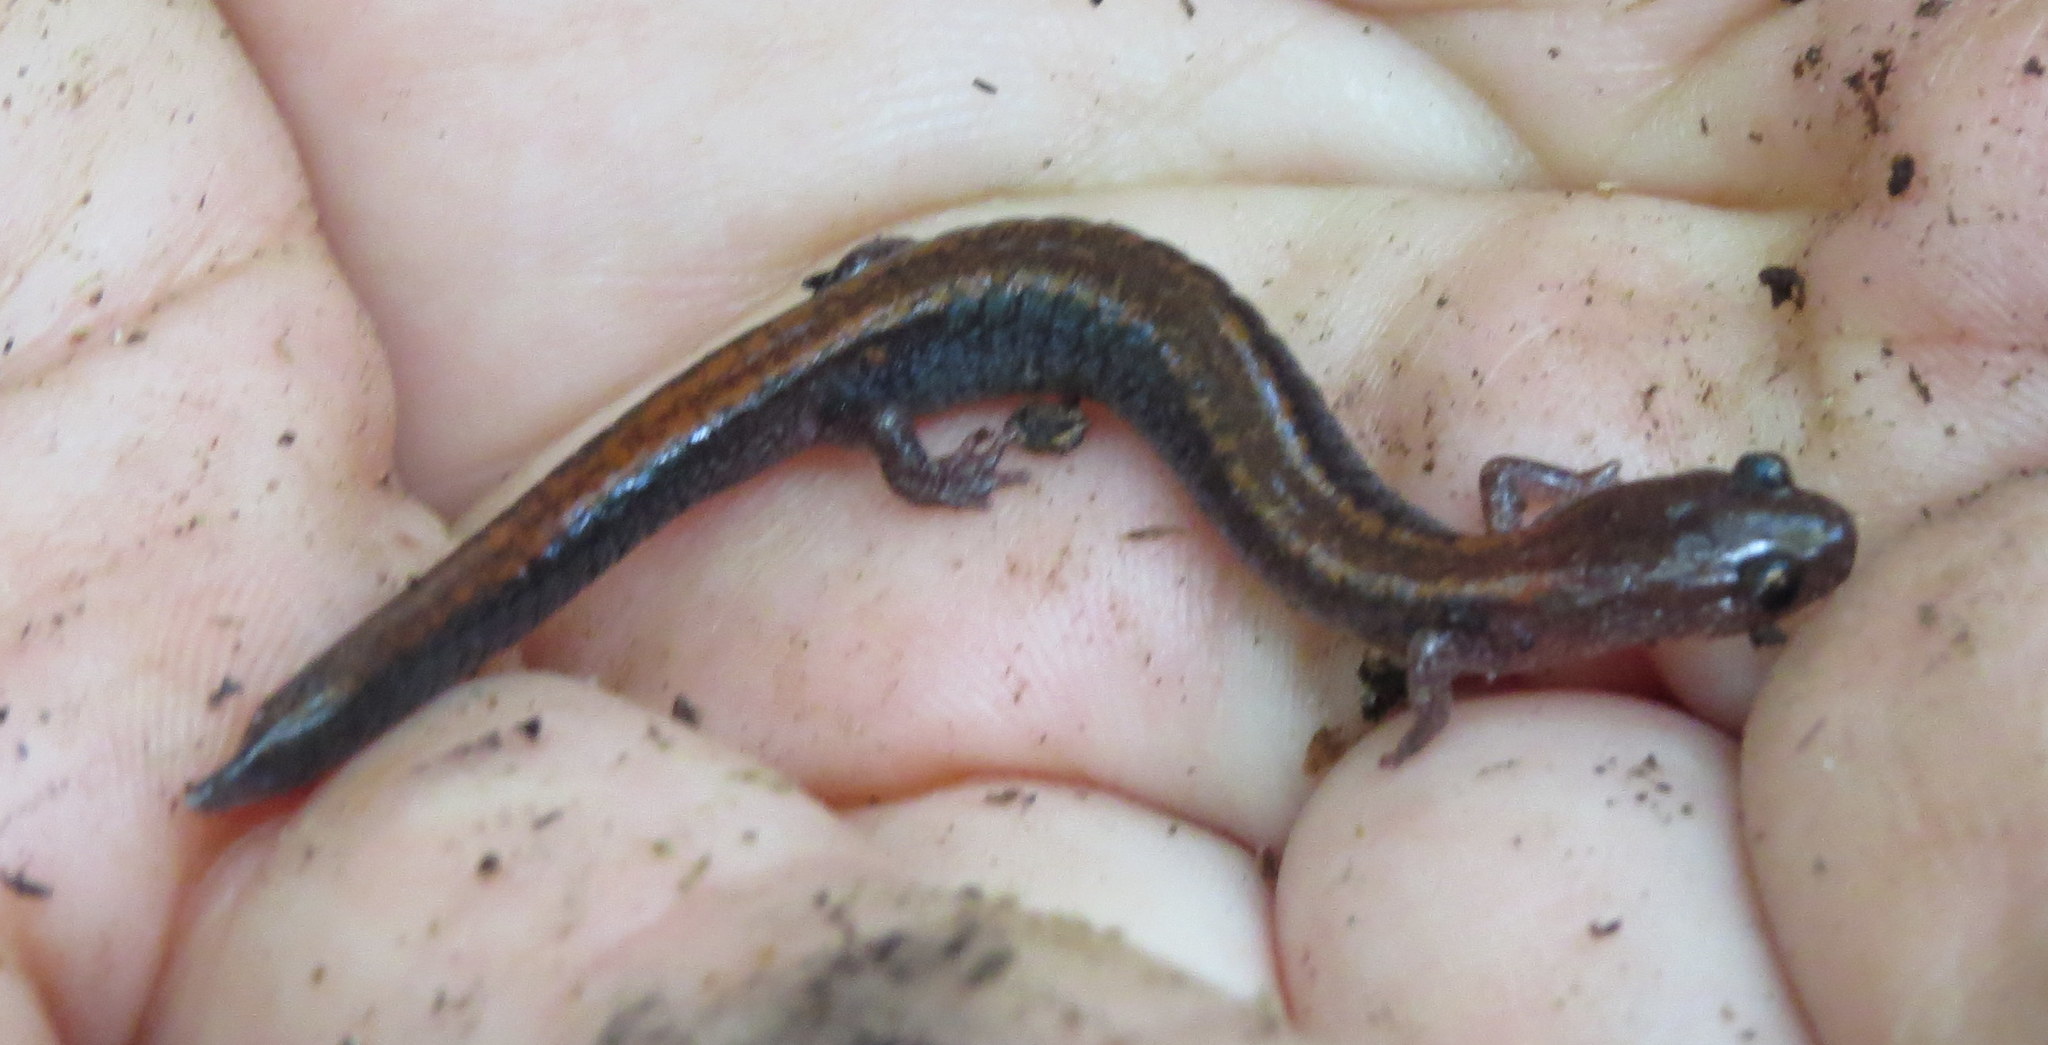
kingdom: Animalia
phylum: Chordata
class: Amphibia
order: Caudata
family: Plethodontidae
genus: Plethodon
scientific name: Plethodon cinereus
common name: Redback salamander
